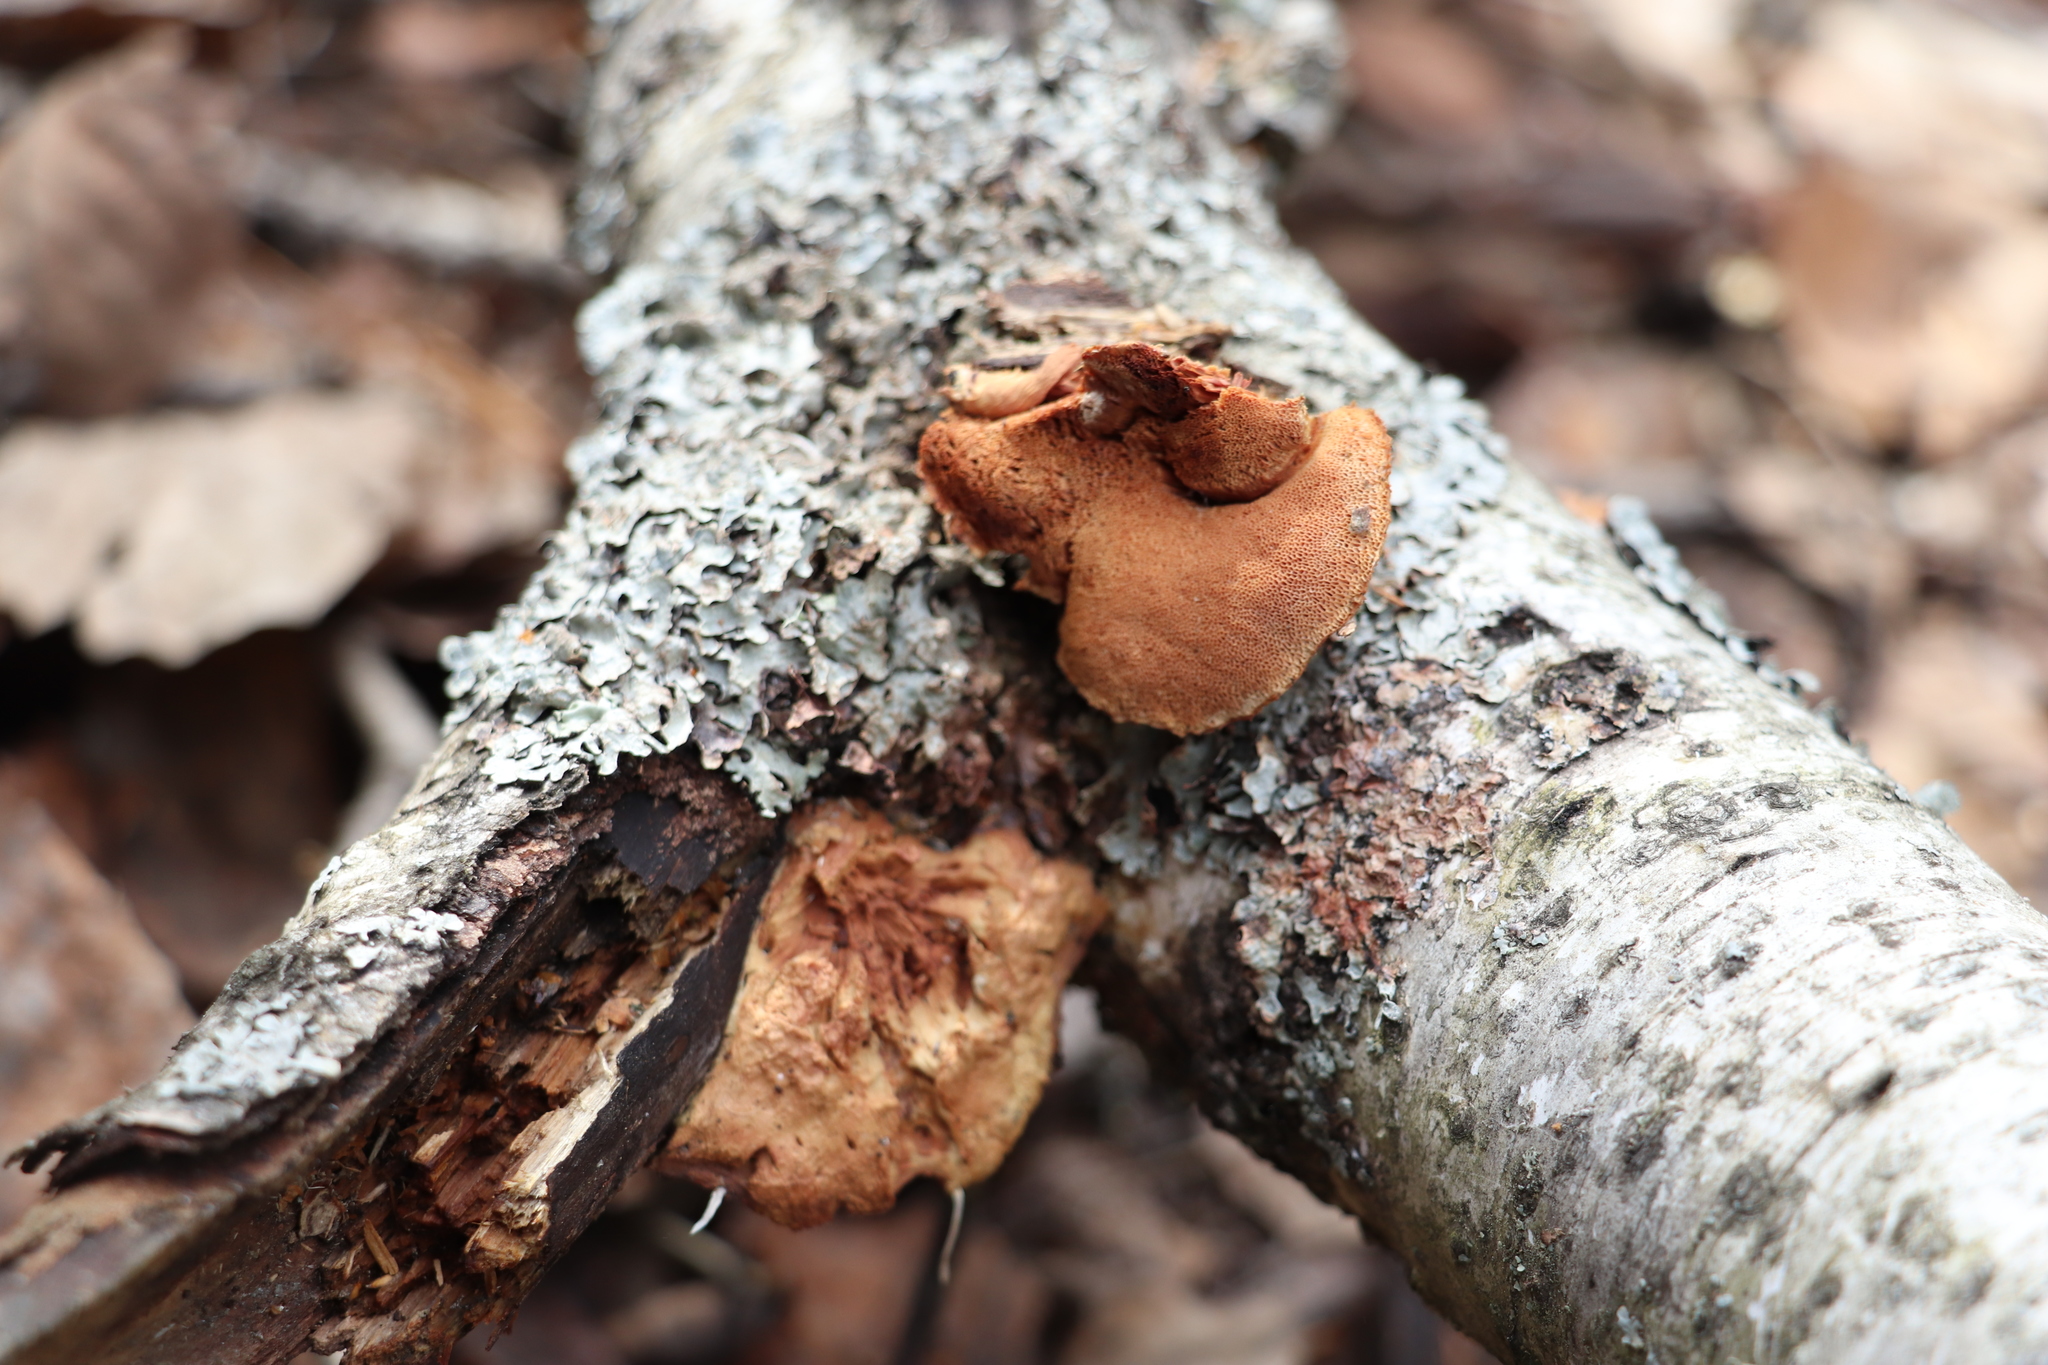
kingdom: Fungi
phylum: Basidiomycota
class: Agaricomycetes
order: Polyporales
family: Phanerochaetaceae
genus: Hapalopilus
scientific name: Hapalopilus rutilans
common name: Tender nesting polypore
